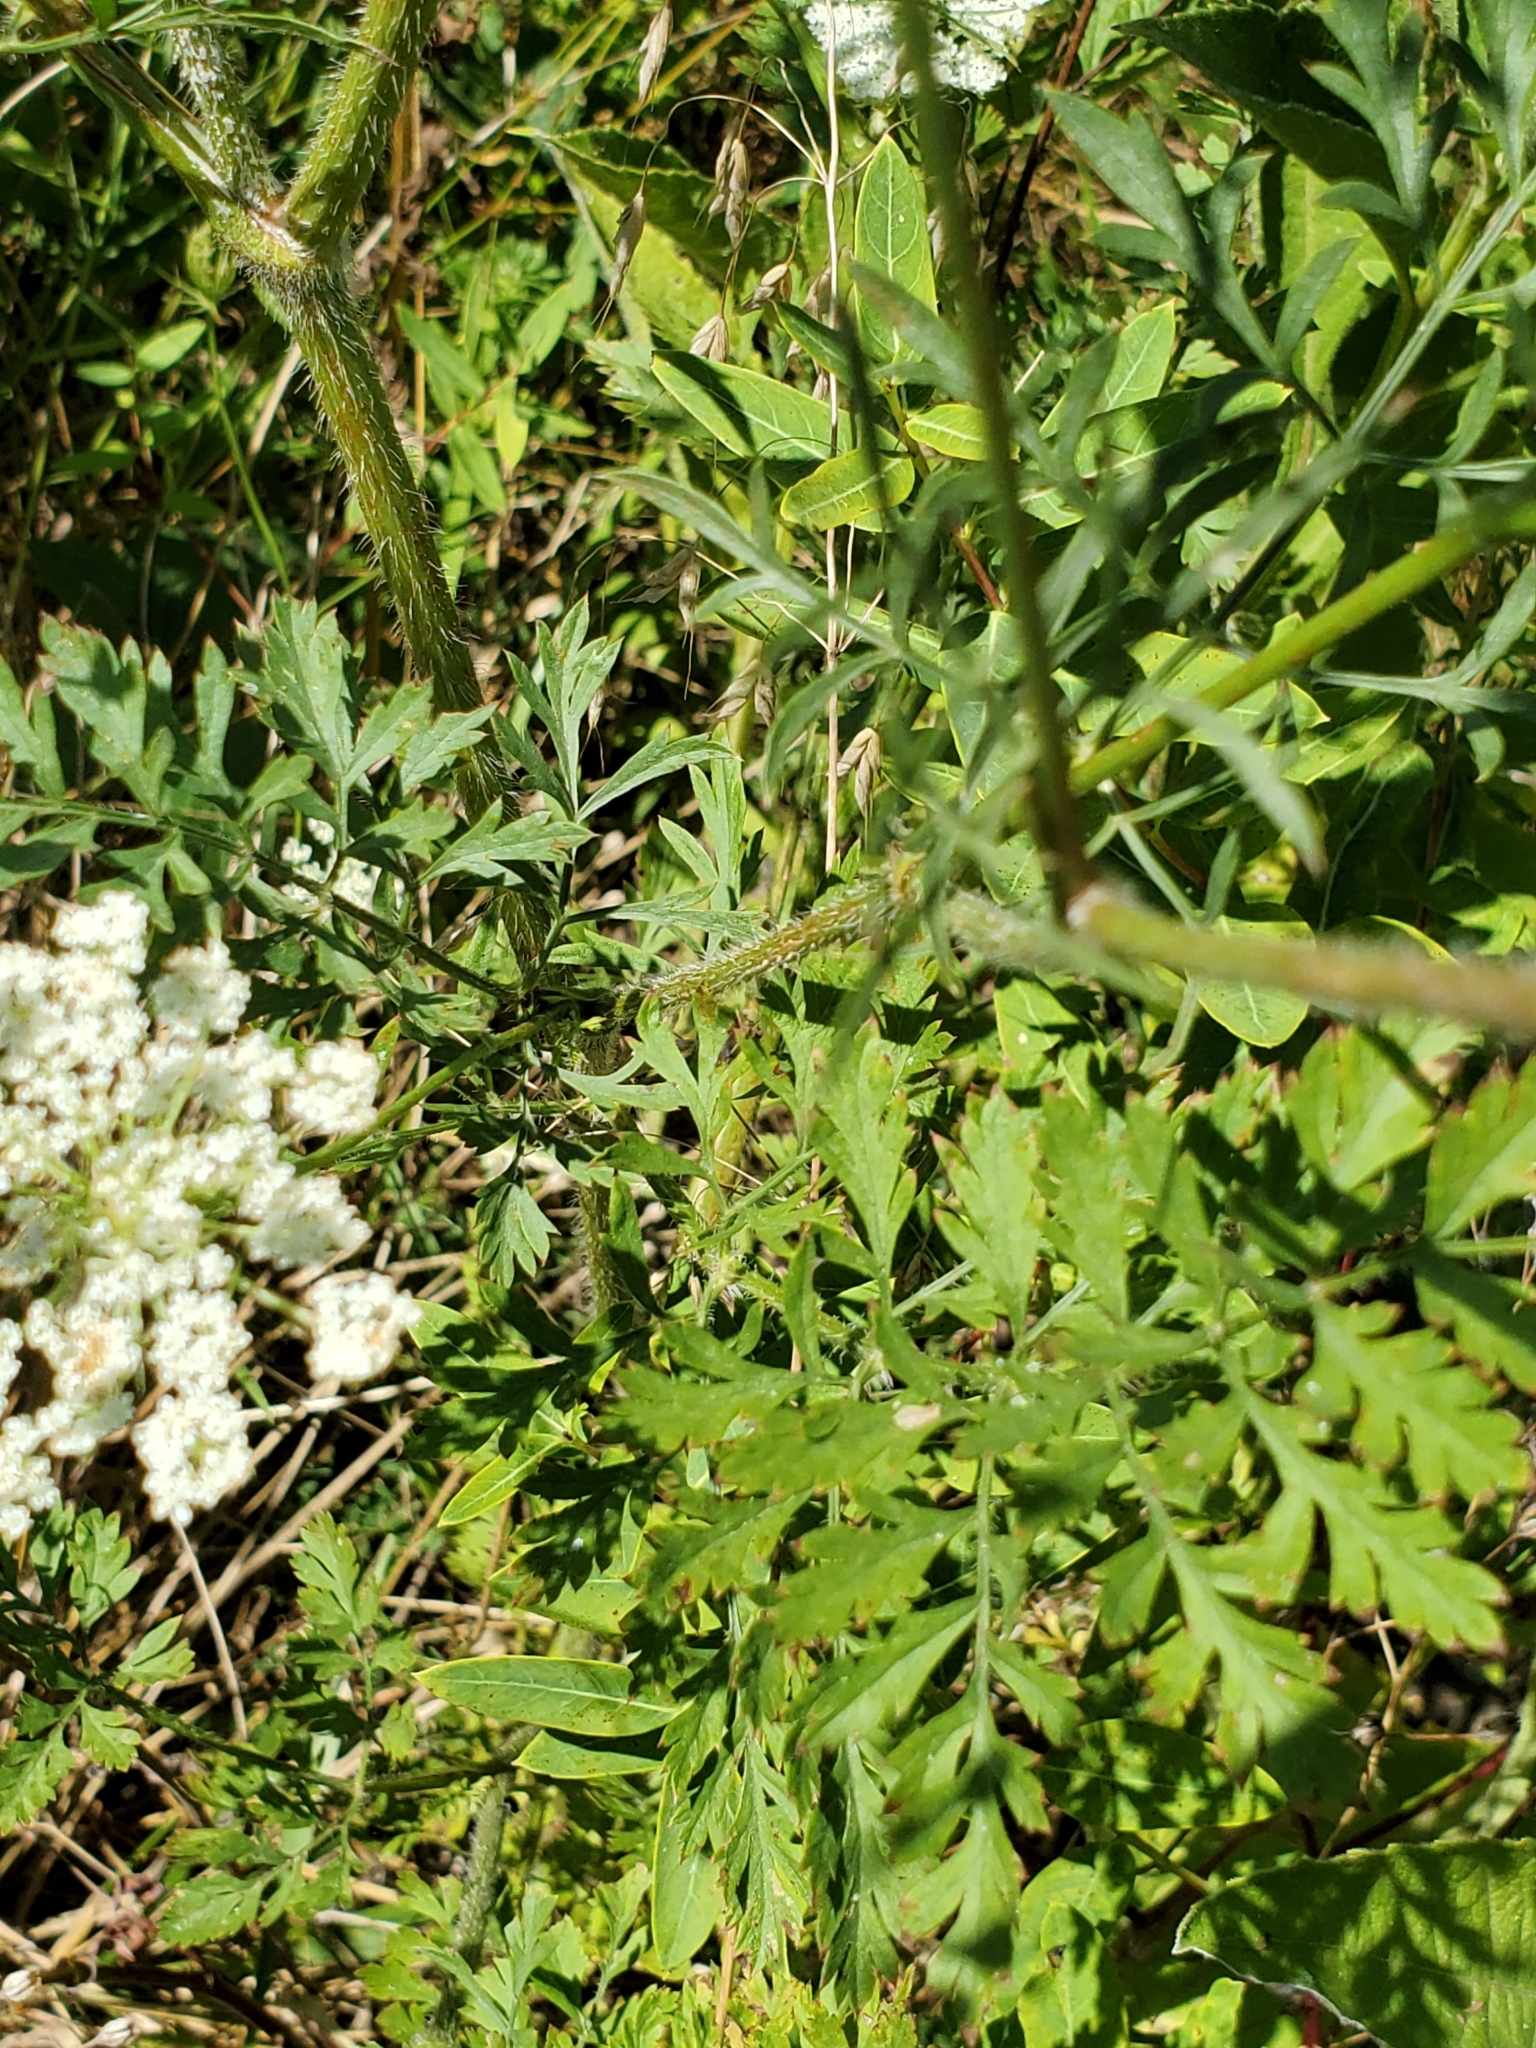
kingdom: Plantae
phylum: Tracheophyta
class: Magnoliopsida
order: Apiales
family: Apiaceae
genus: Daucus
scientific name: Daucus carota
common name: Wild carrot
